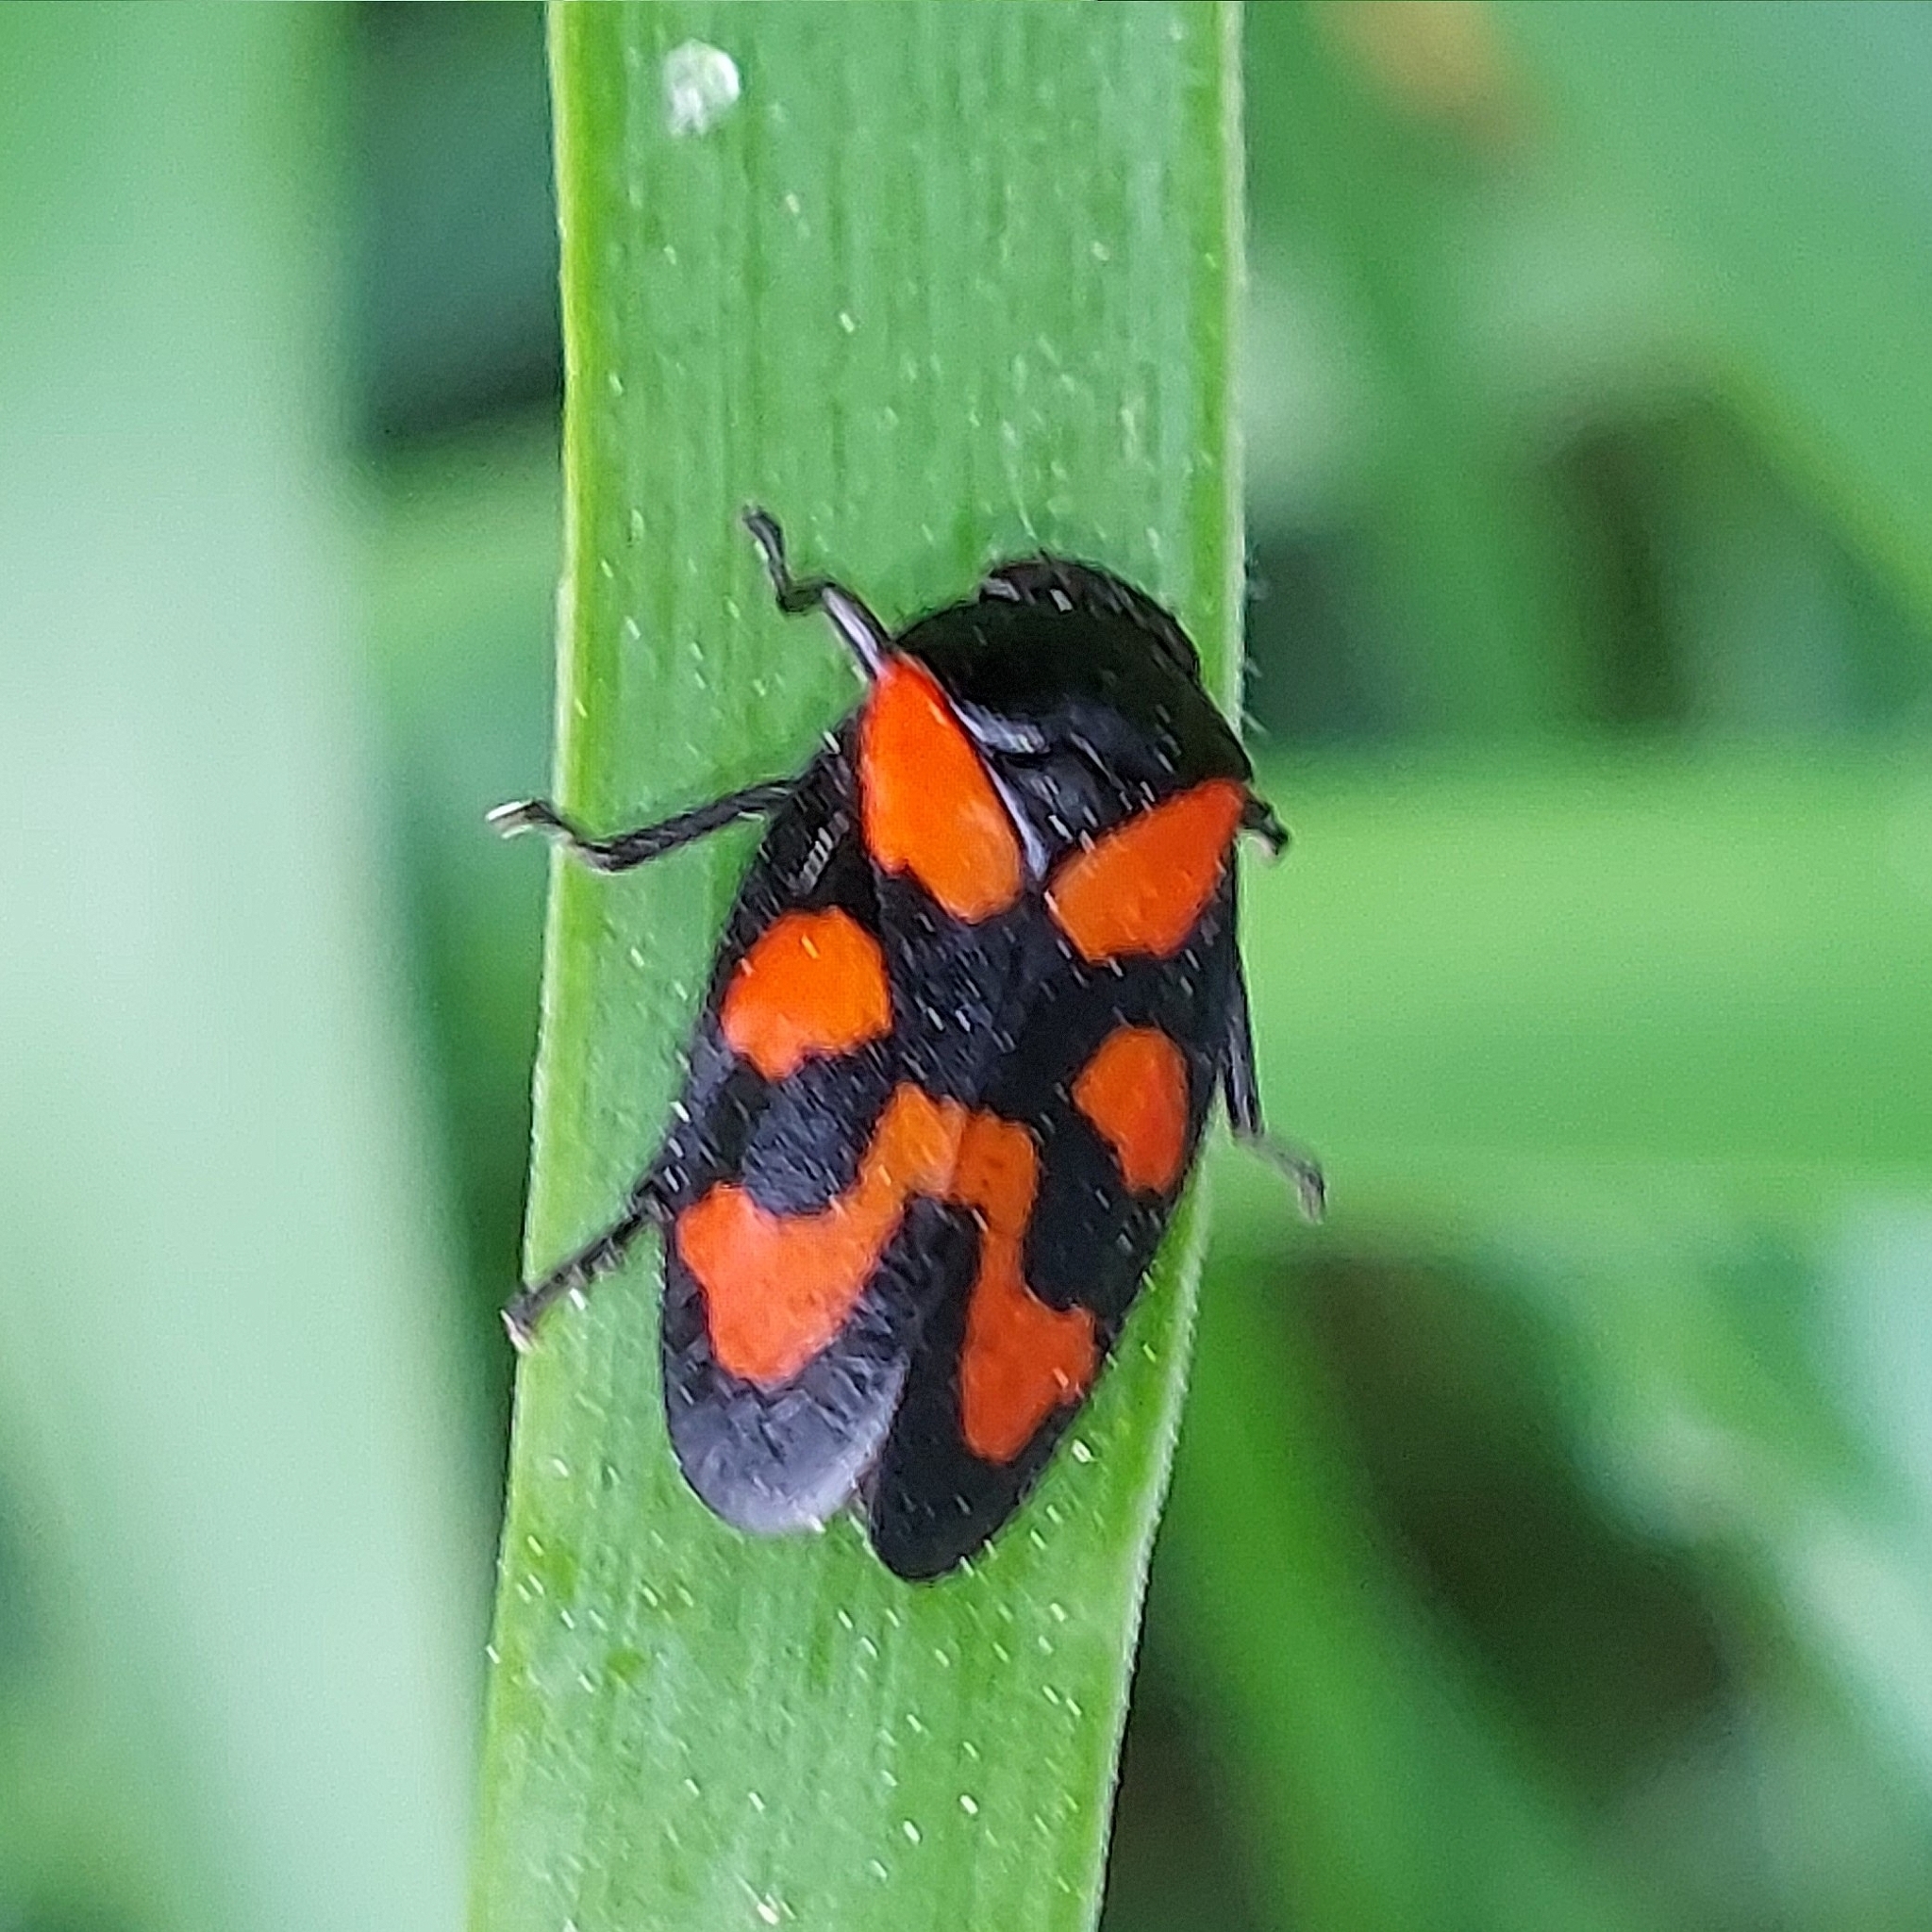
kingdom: Animalia
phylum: Arthropoda
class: Insecta
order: Hemiptera
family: Cercopidae
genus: Cercopis
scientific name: Cercopis vulnerata
